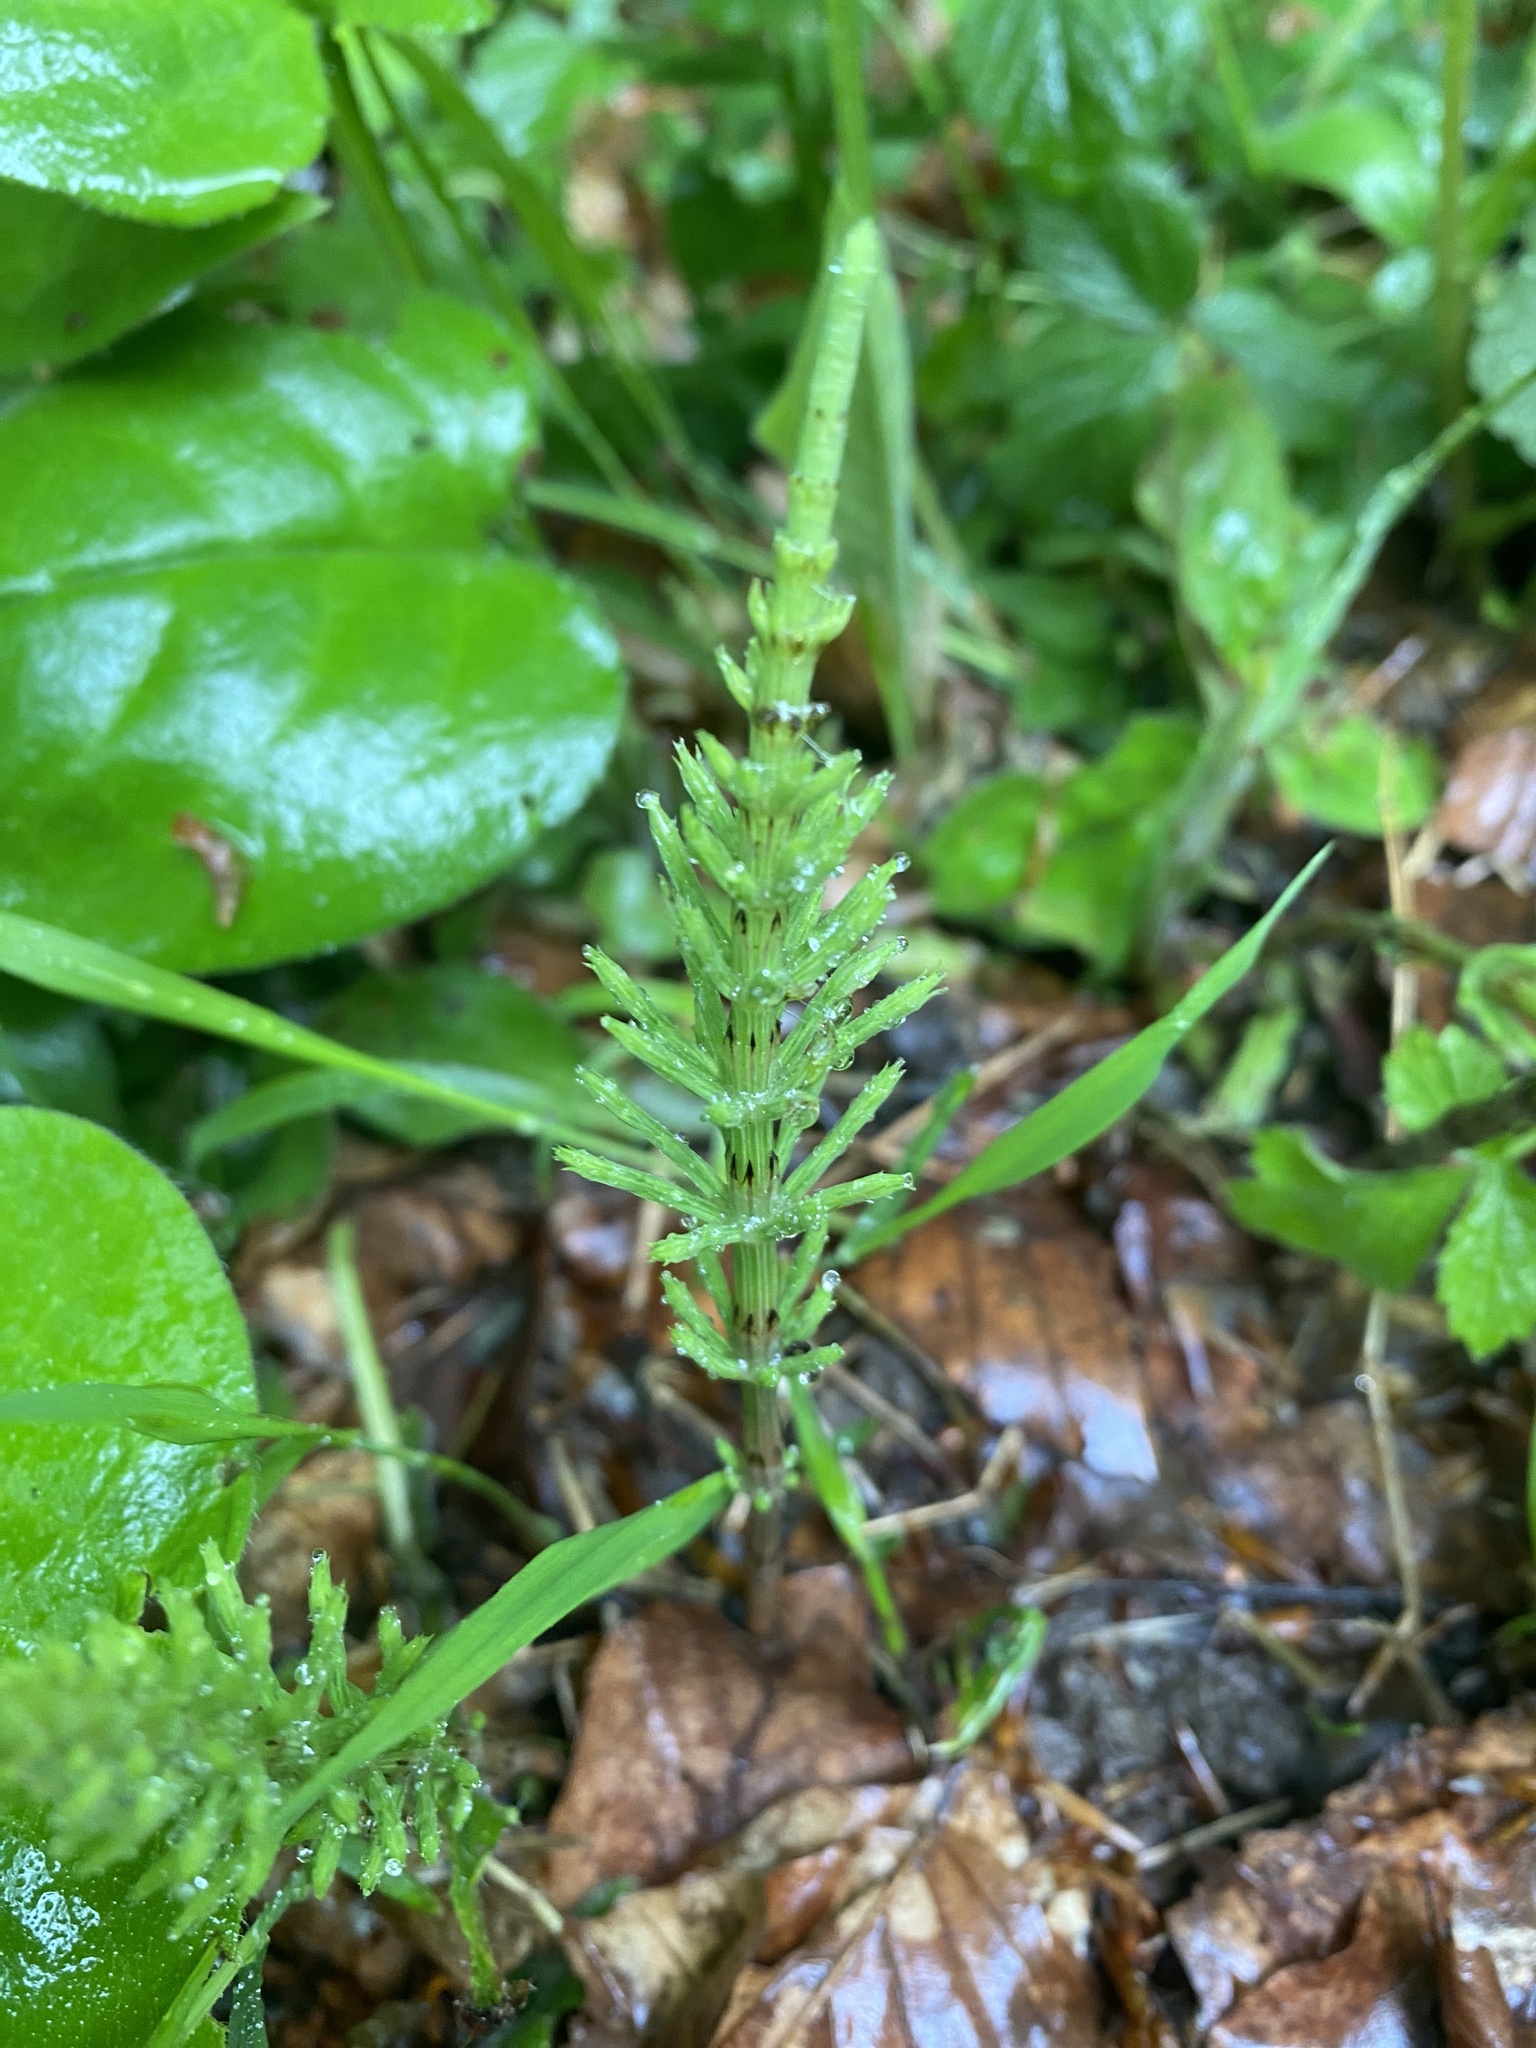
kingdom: Plantae
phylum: Tracheophyta
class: Polypodiopsida
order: Equisetales
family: Equisetaceae
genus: Equisetum
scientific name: Equisetum arvense
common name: Field horsetail
